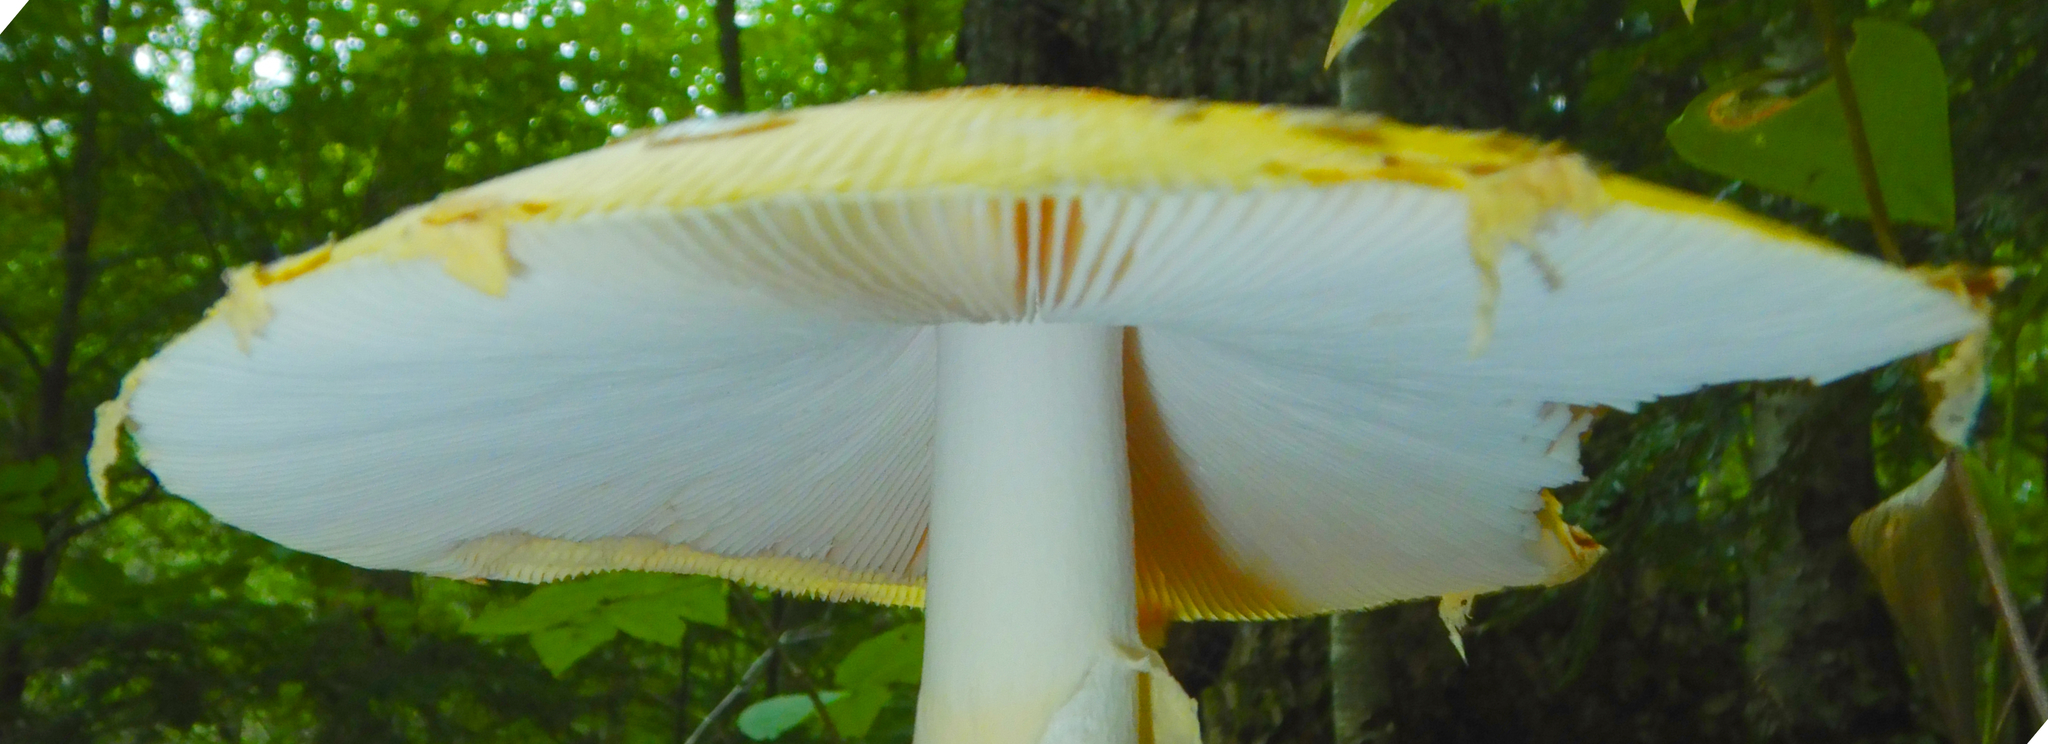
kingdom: Fungi
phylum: Basidiomycota
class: Agaricomycetes
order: Agaricales
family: Amanitaceae
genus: Amanita
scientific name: Amanita muscaria
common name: Fly agaric
